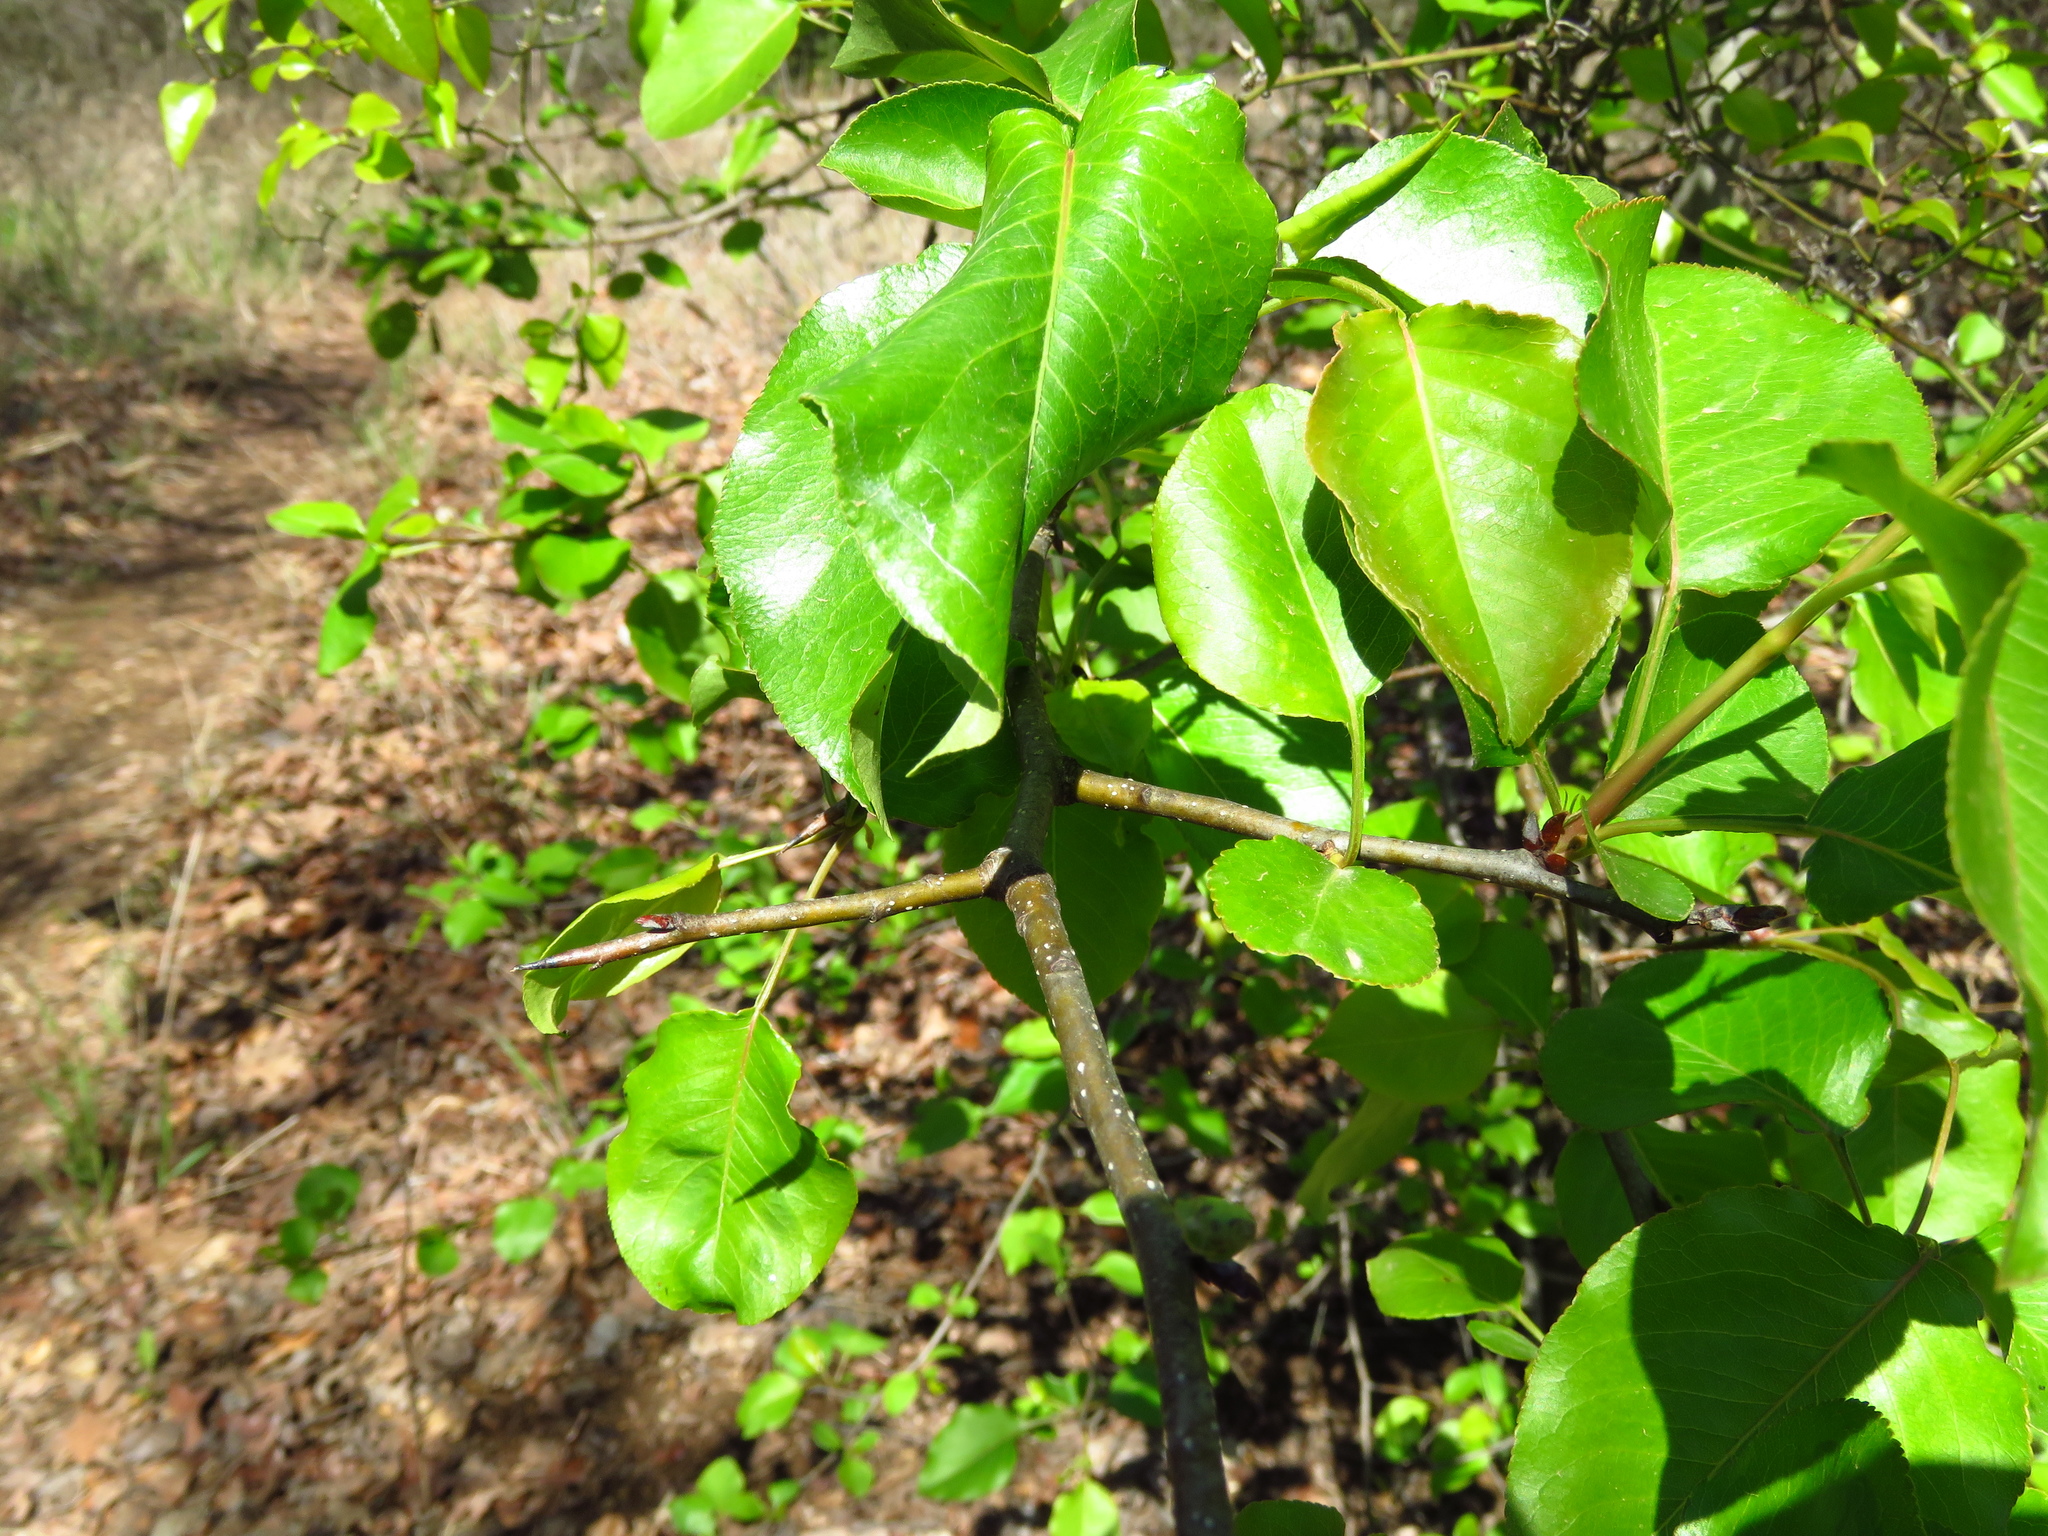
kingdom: Plantae
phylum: Tracheophyta
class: Magnoliopsida
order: Rosales
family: Rosaceae
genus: Pyrus
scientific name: Pyrus calleryana
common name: Callery pear
